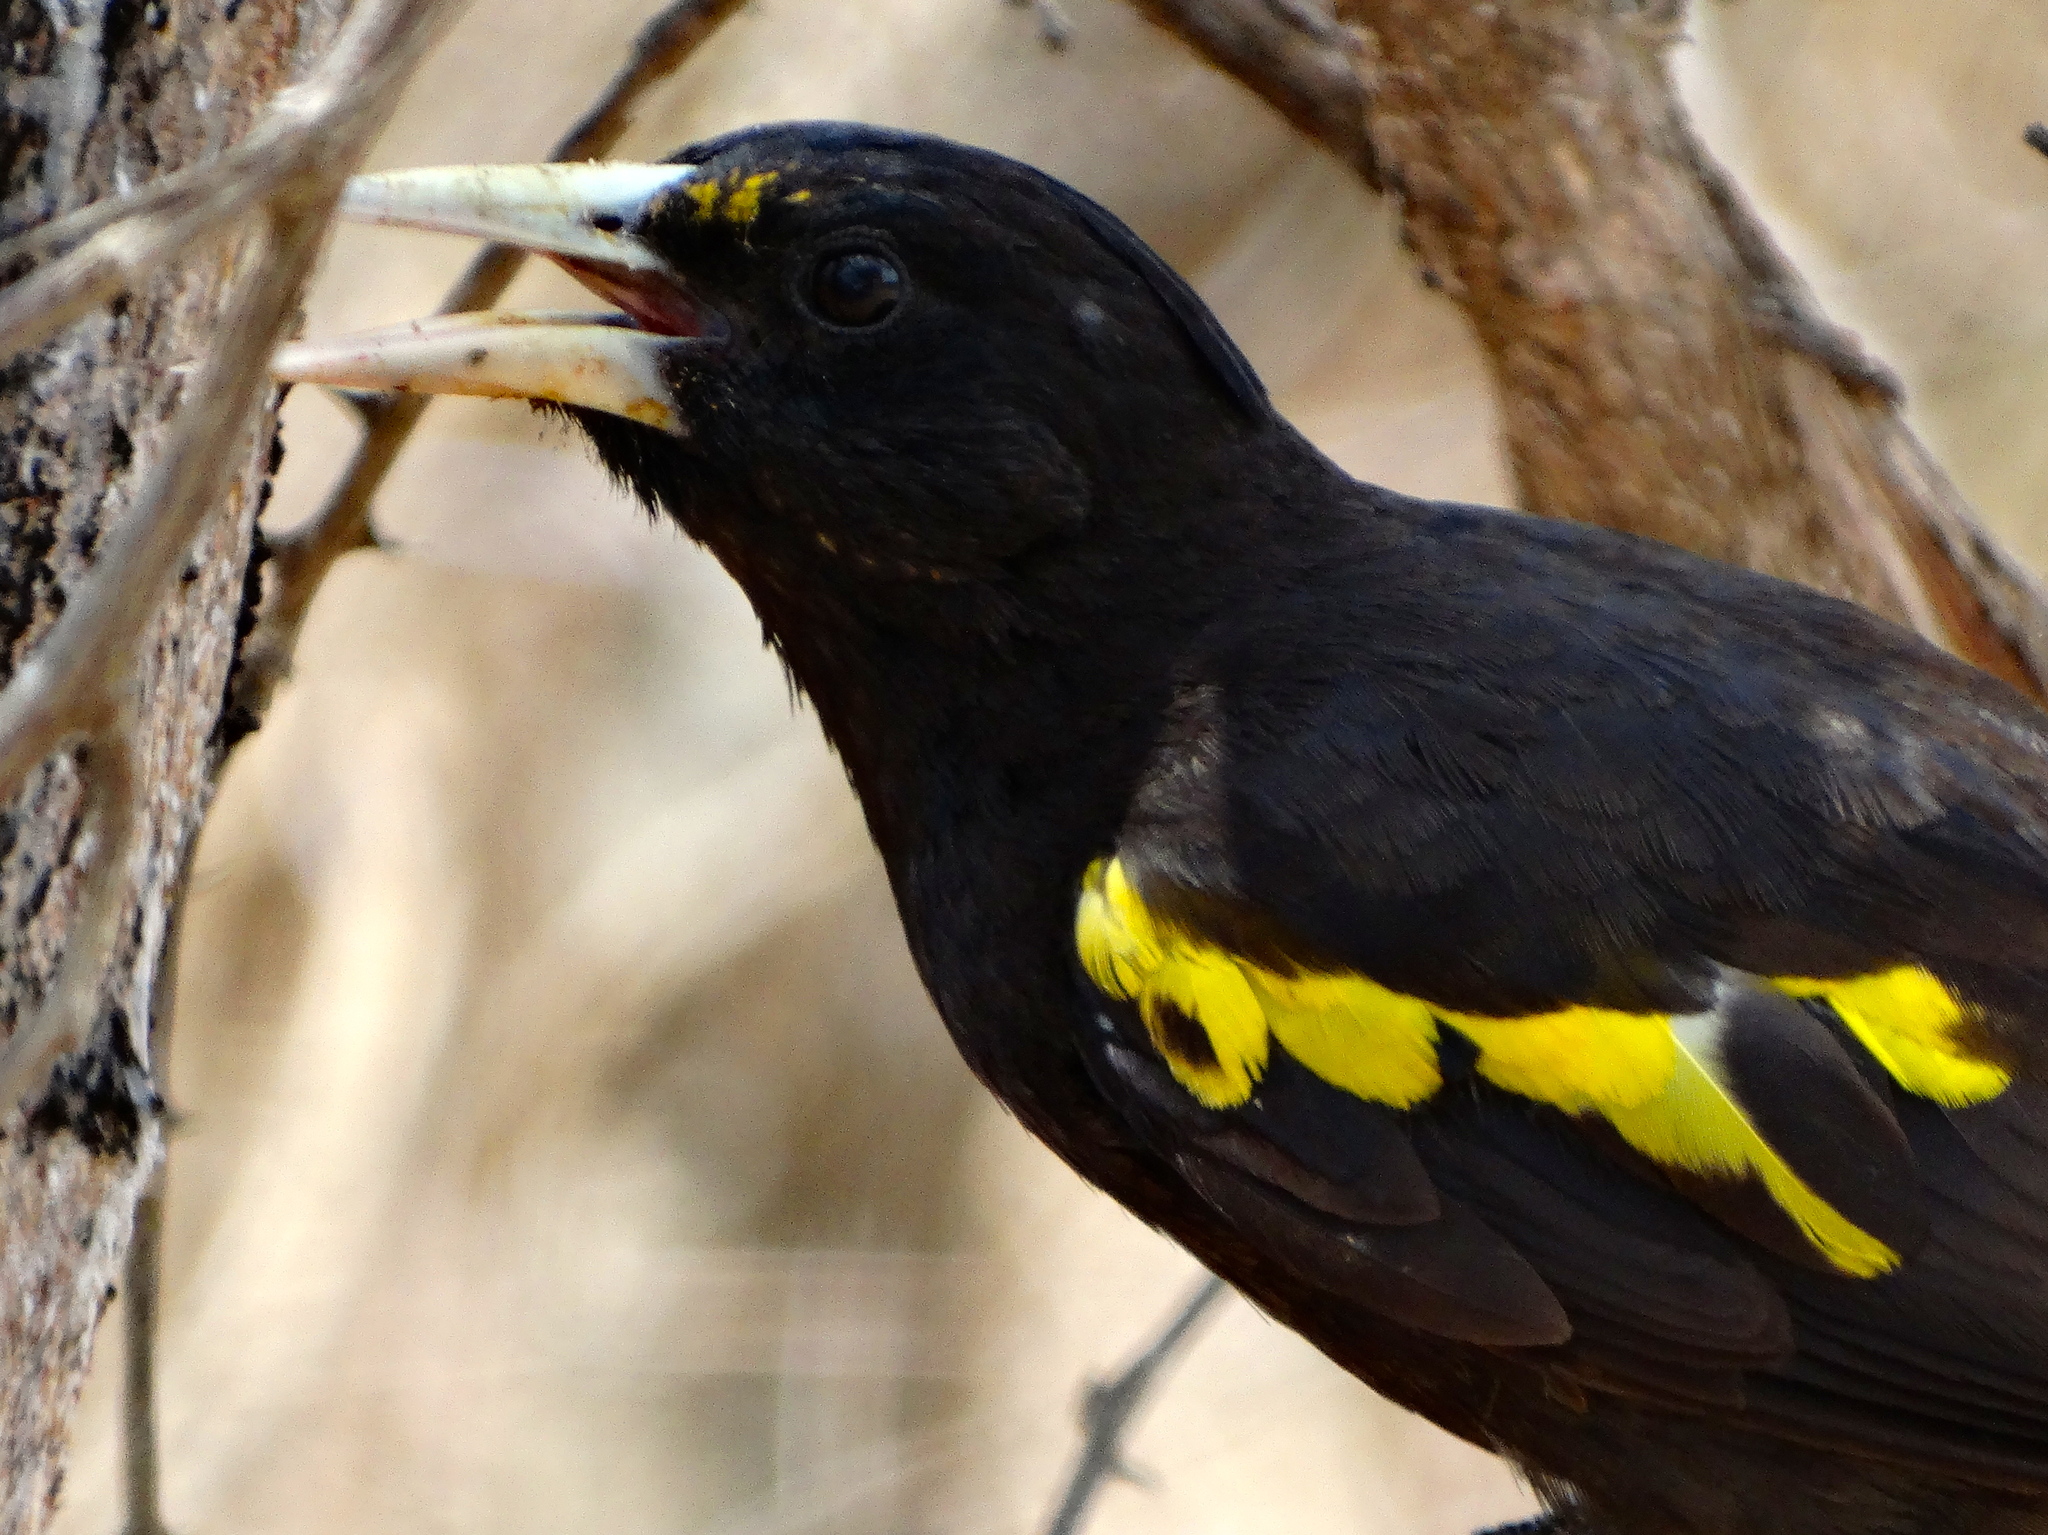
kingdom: Animalia
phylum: Chordata
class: Aves
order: Passeriformes
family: Icteridae
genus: Cacicus
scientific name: Cacicus melanicterus
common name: Yellow-winged cacique
